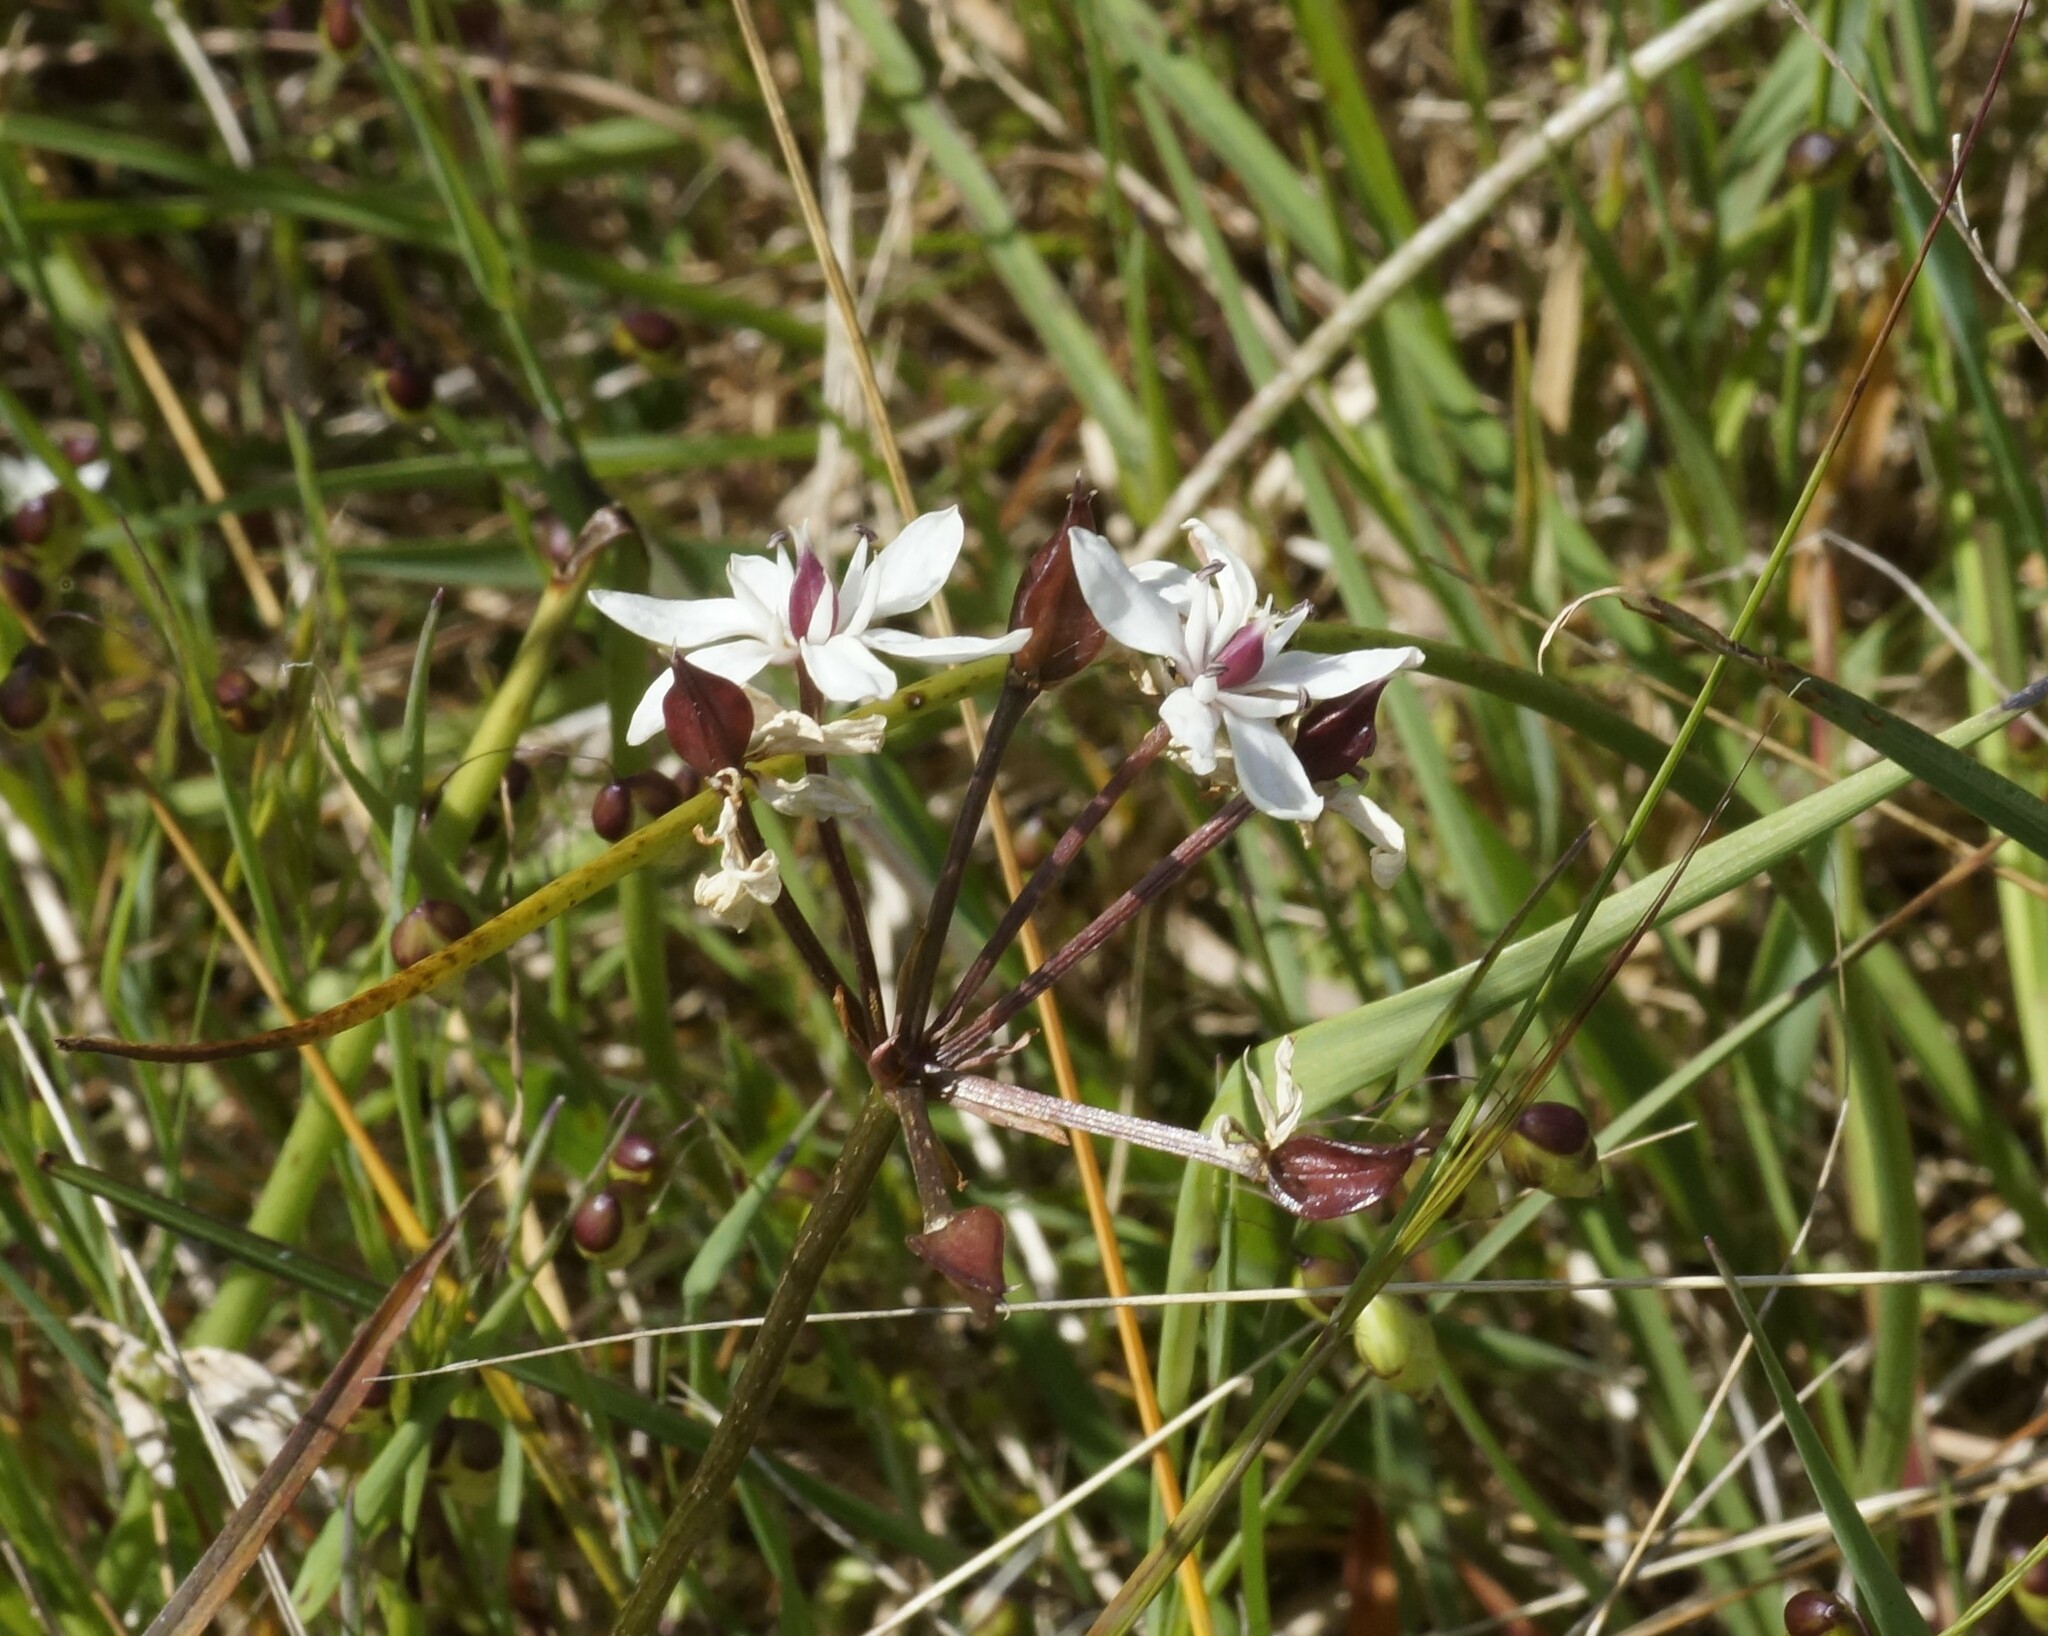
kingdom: Plantae
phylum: Tracheophyta
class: Liliopsida
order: Liliales
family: Colchicaceae
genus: Burchardia
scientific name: Burchardia umbellata
